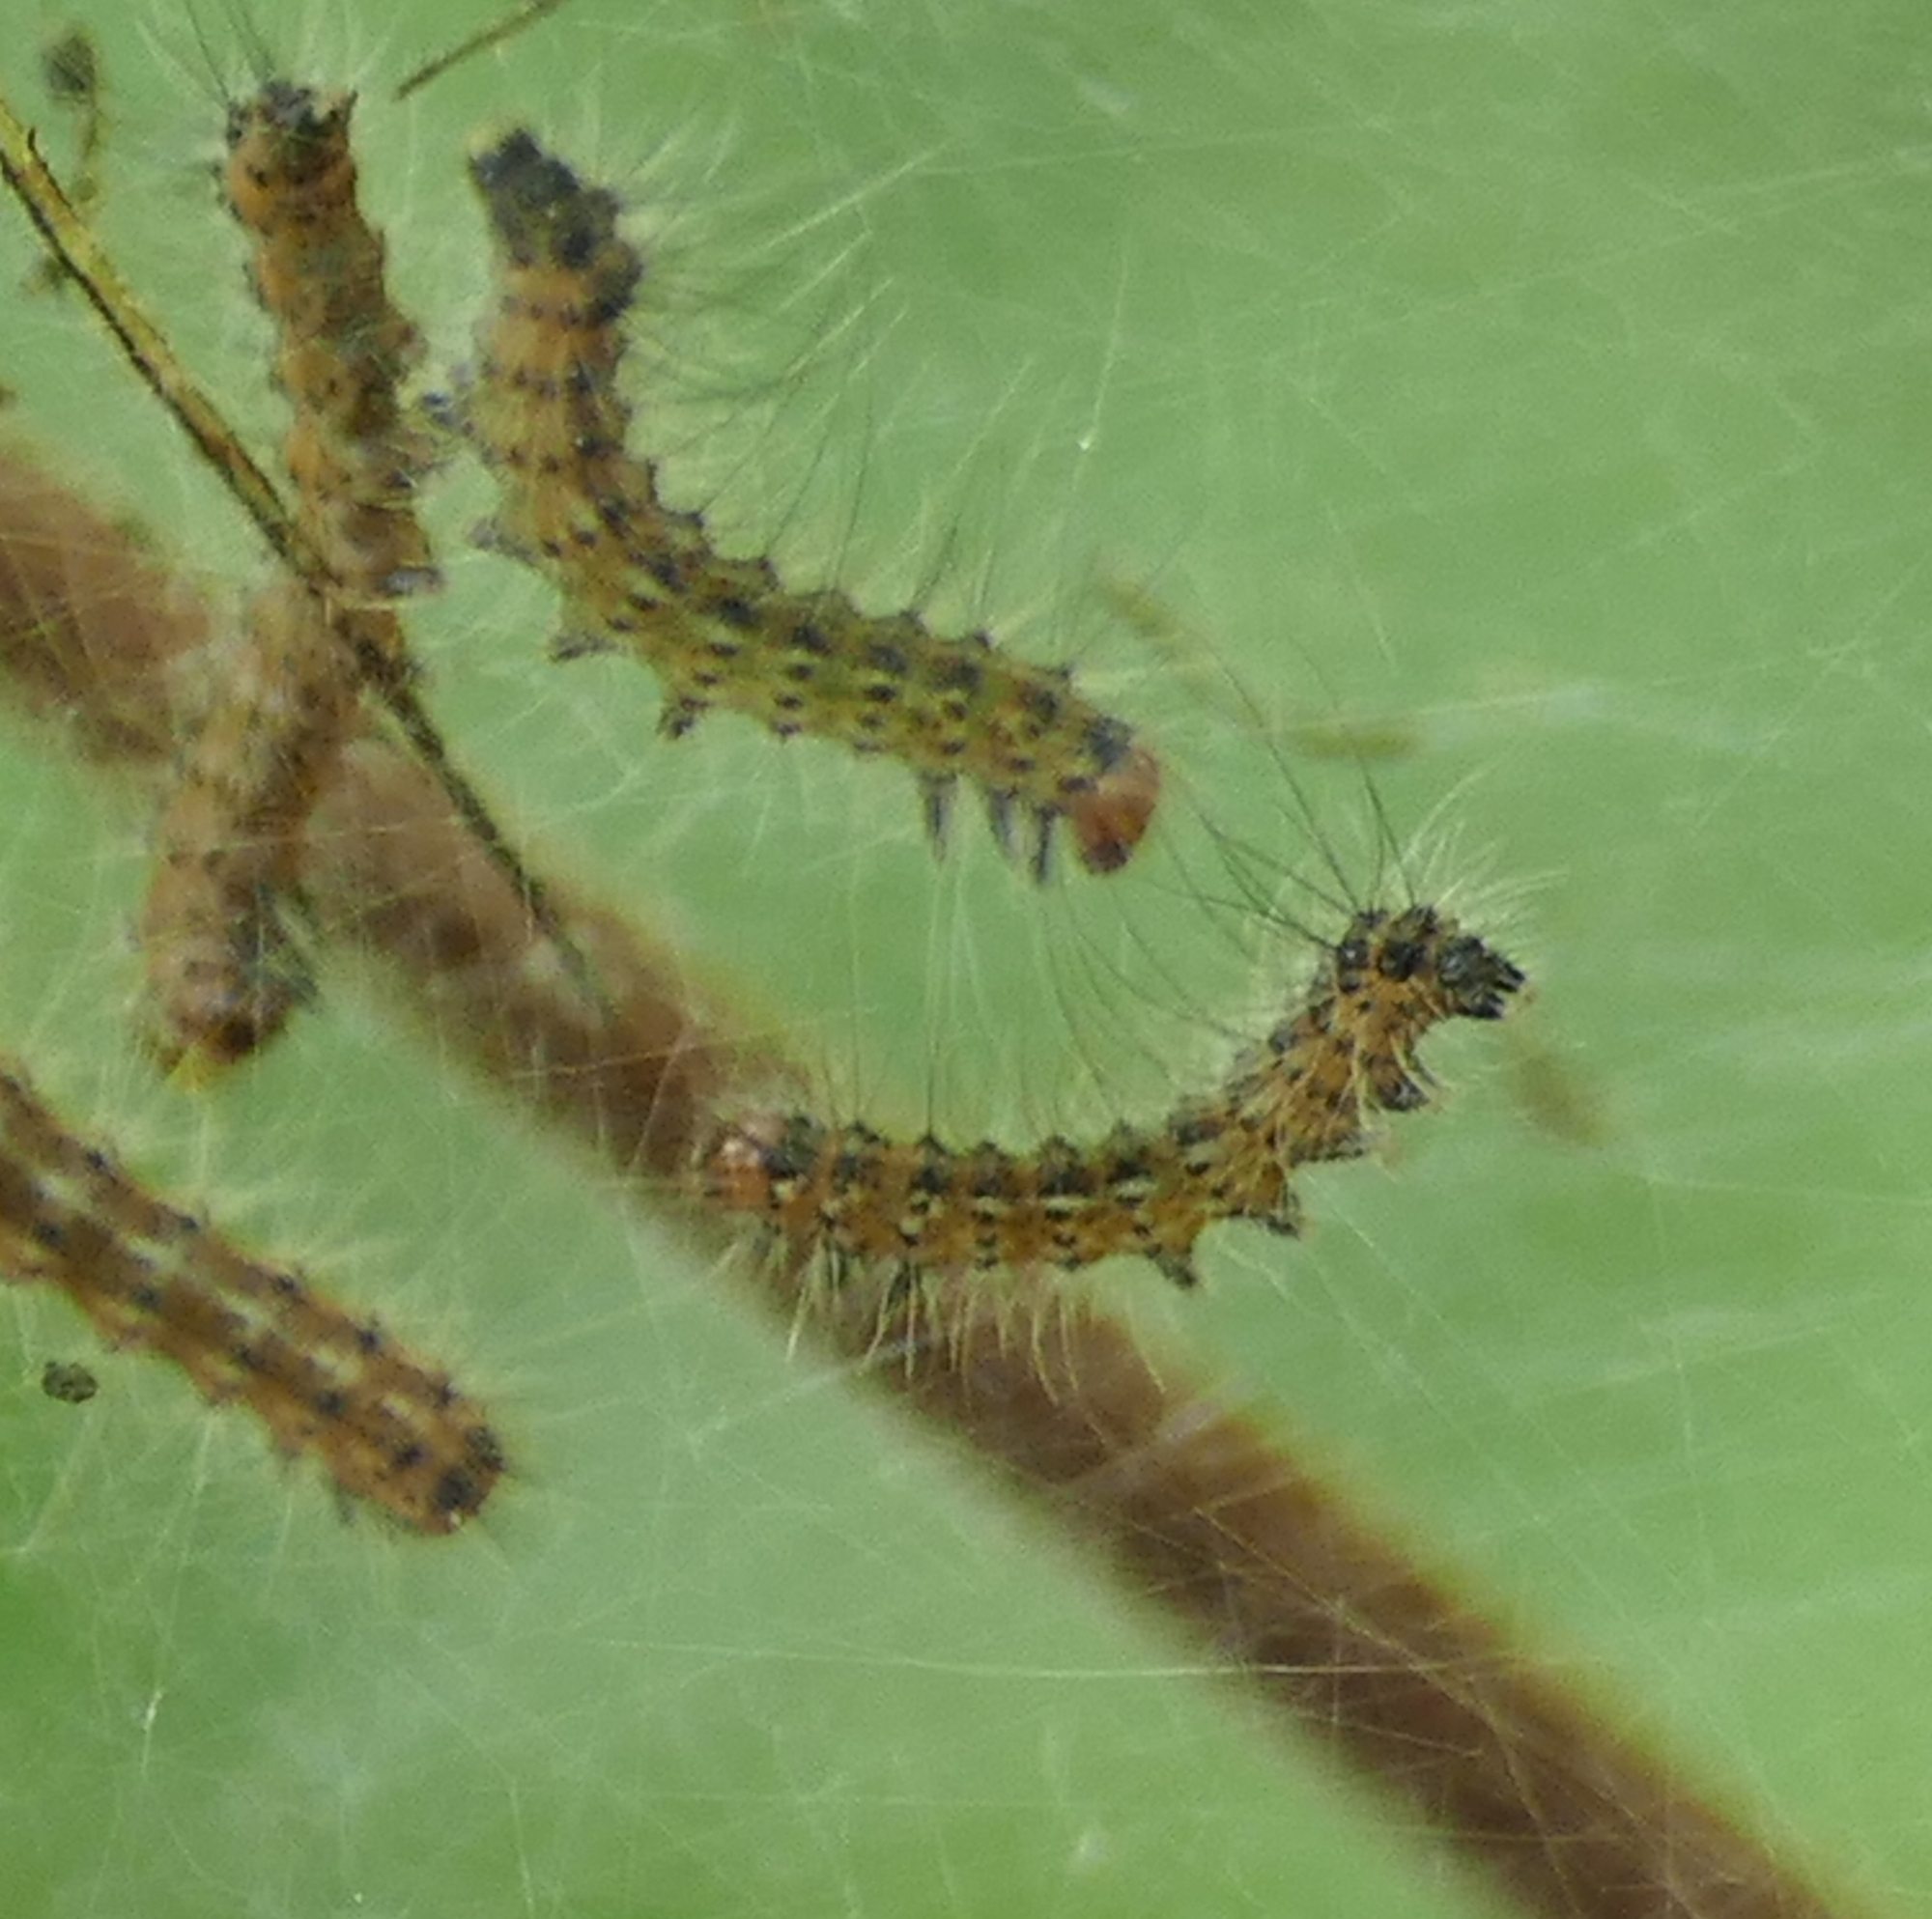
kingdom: Animalia
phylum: Arthropoda
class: Insecta
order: Lepidoptera
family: Erebidae
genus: Hyphantria
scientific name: Hyphantria cunea
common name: American white moth
